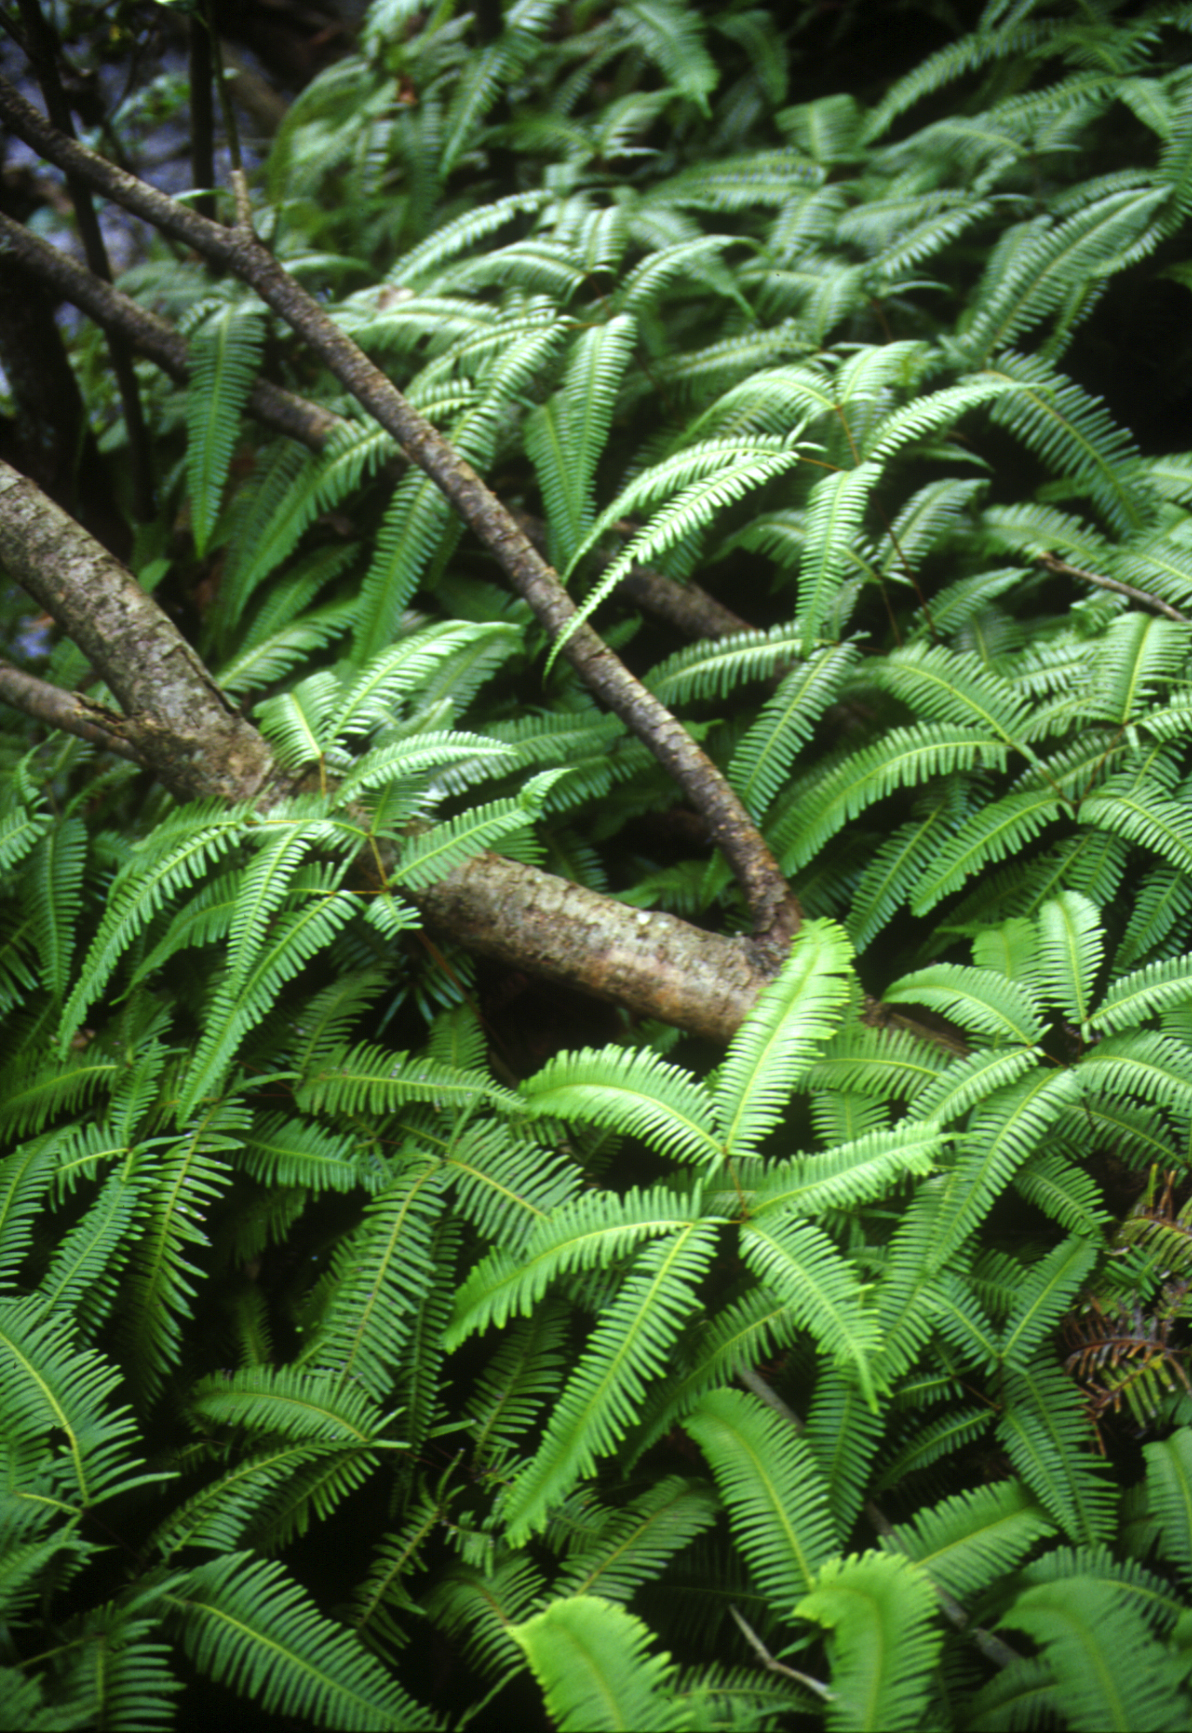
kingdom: Plantae
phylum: Tracheophyta
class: Polypodiopsida
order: Gleicheniales
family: Gleicheniaceae
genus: Dicranopteris
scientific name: Dicranopteris linearis
